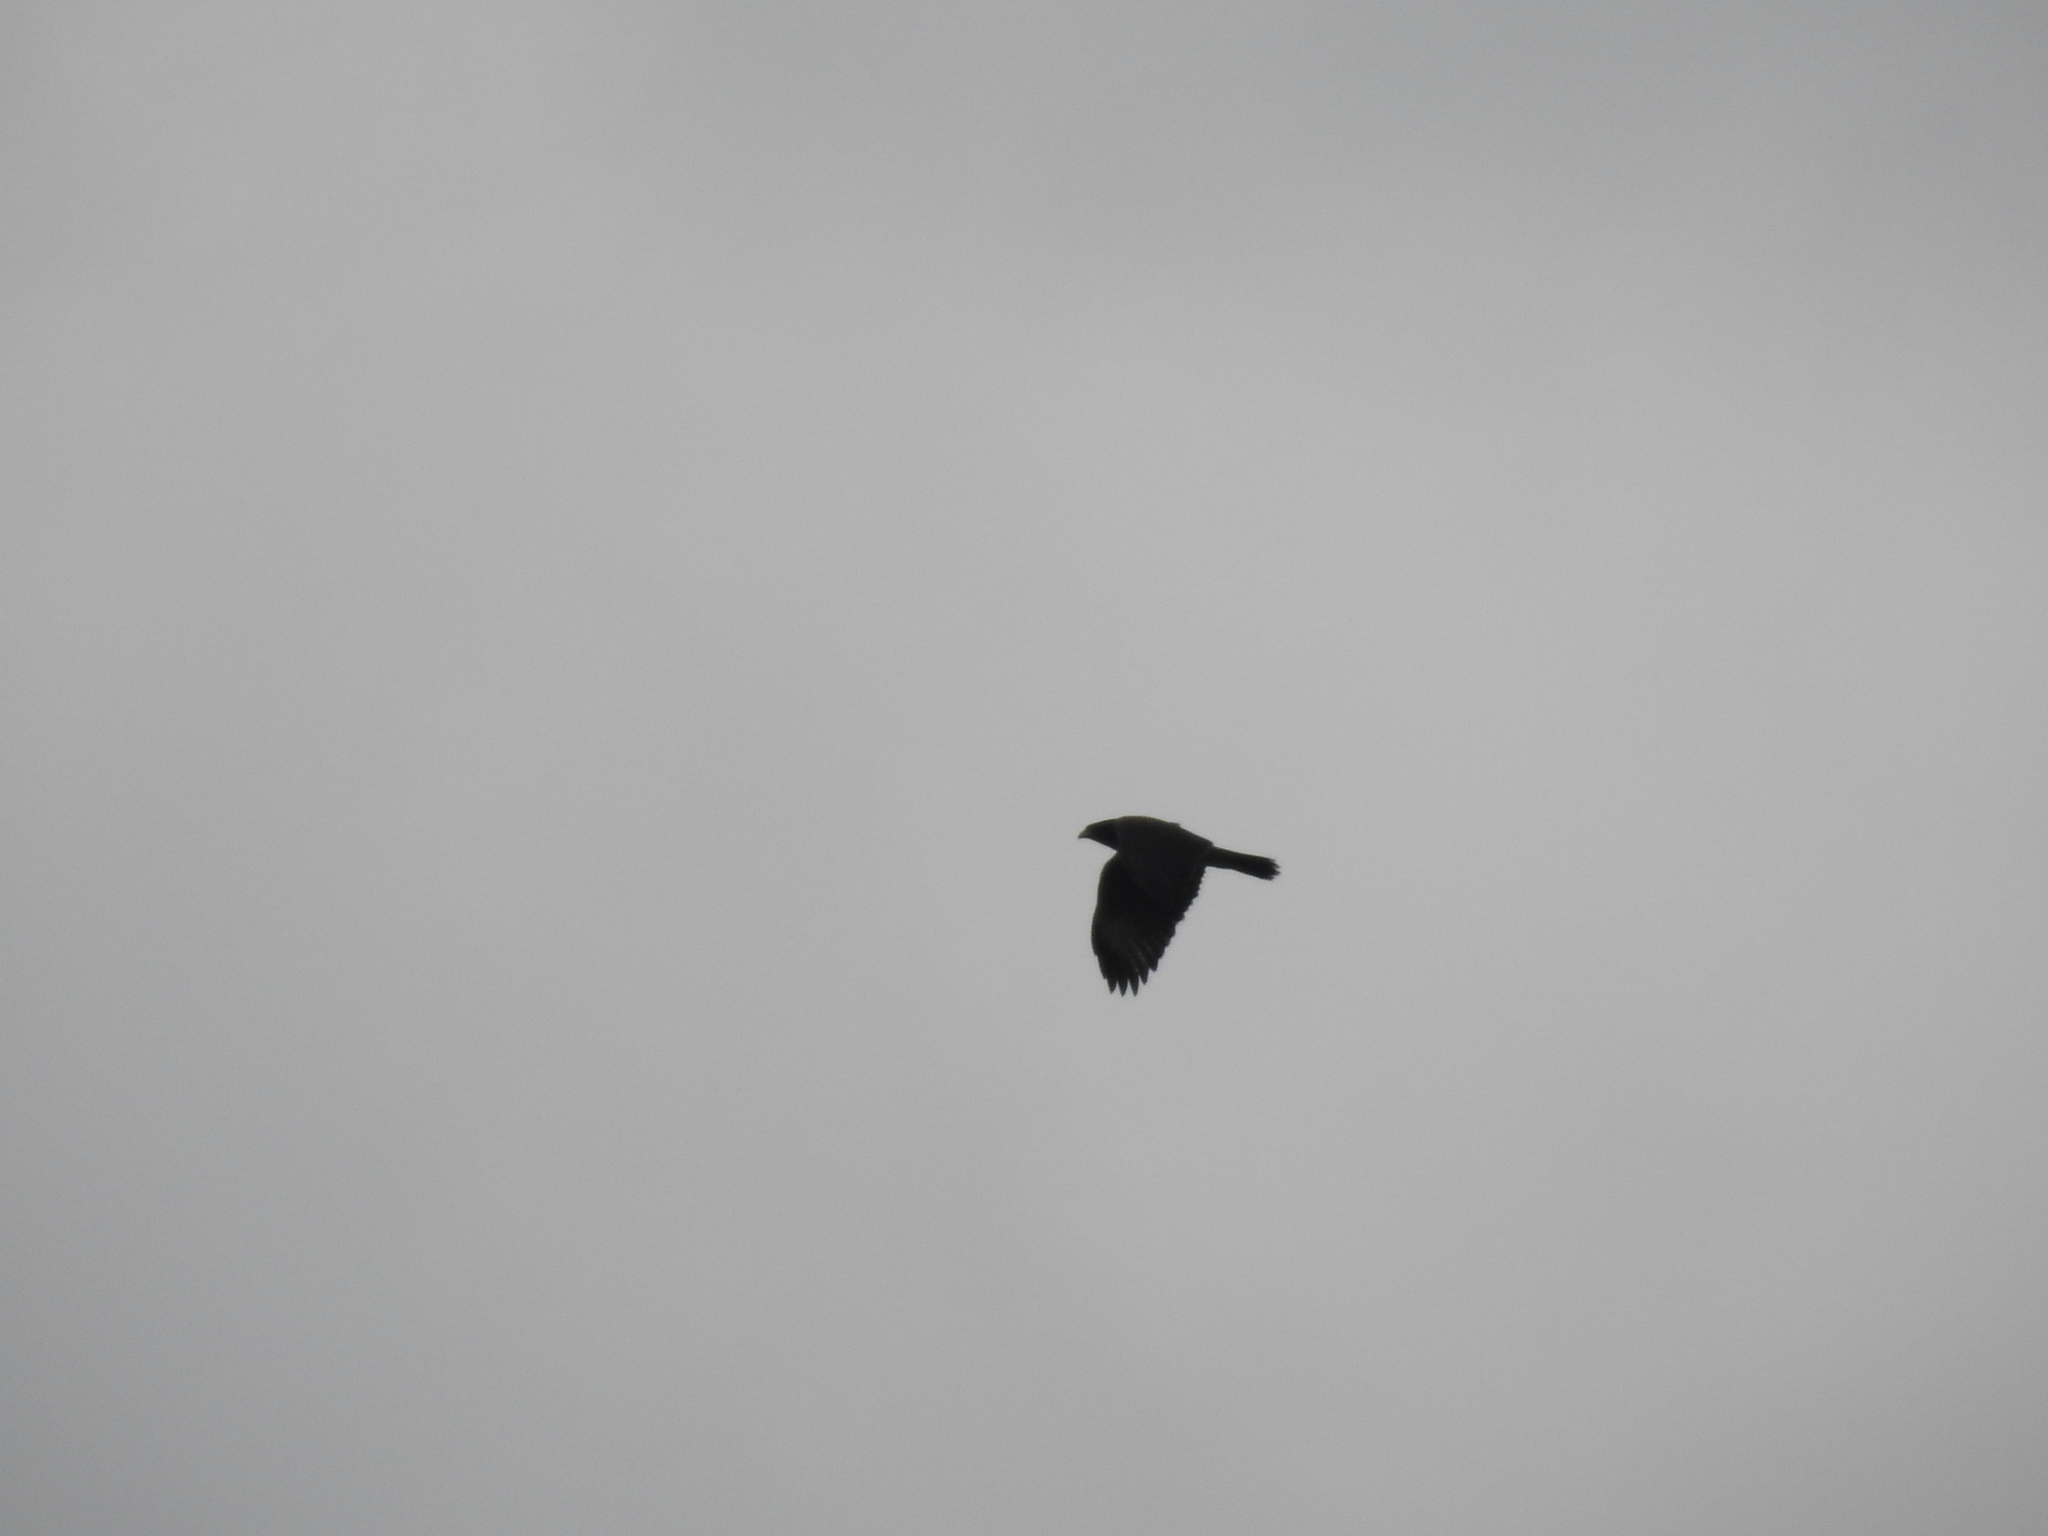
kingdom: Animalia
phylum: Chordata
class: Aves
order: Accipitriformes
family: Accipitridae
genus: Parabuteo
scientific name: Parabuteo unicinctus
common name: Harris's hawk
